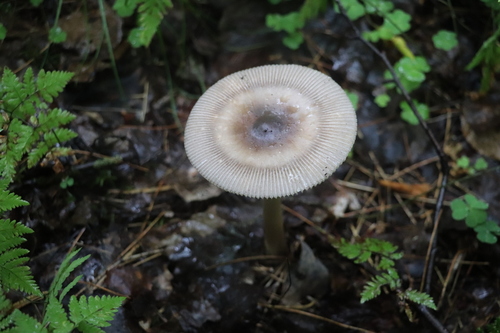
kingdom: Fungi
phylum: Basidiomycota
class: Agaricomycetes
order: Agaricales
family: Amanitaceae
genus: Amanita
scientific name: Amanita battarrae
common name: Banded amanita
